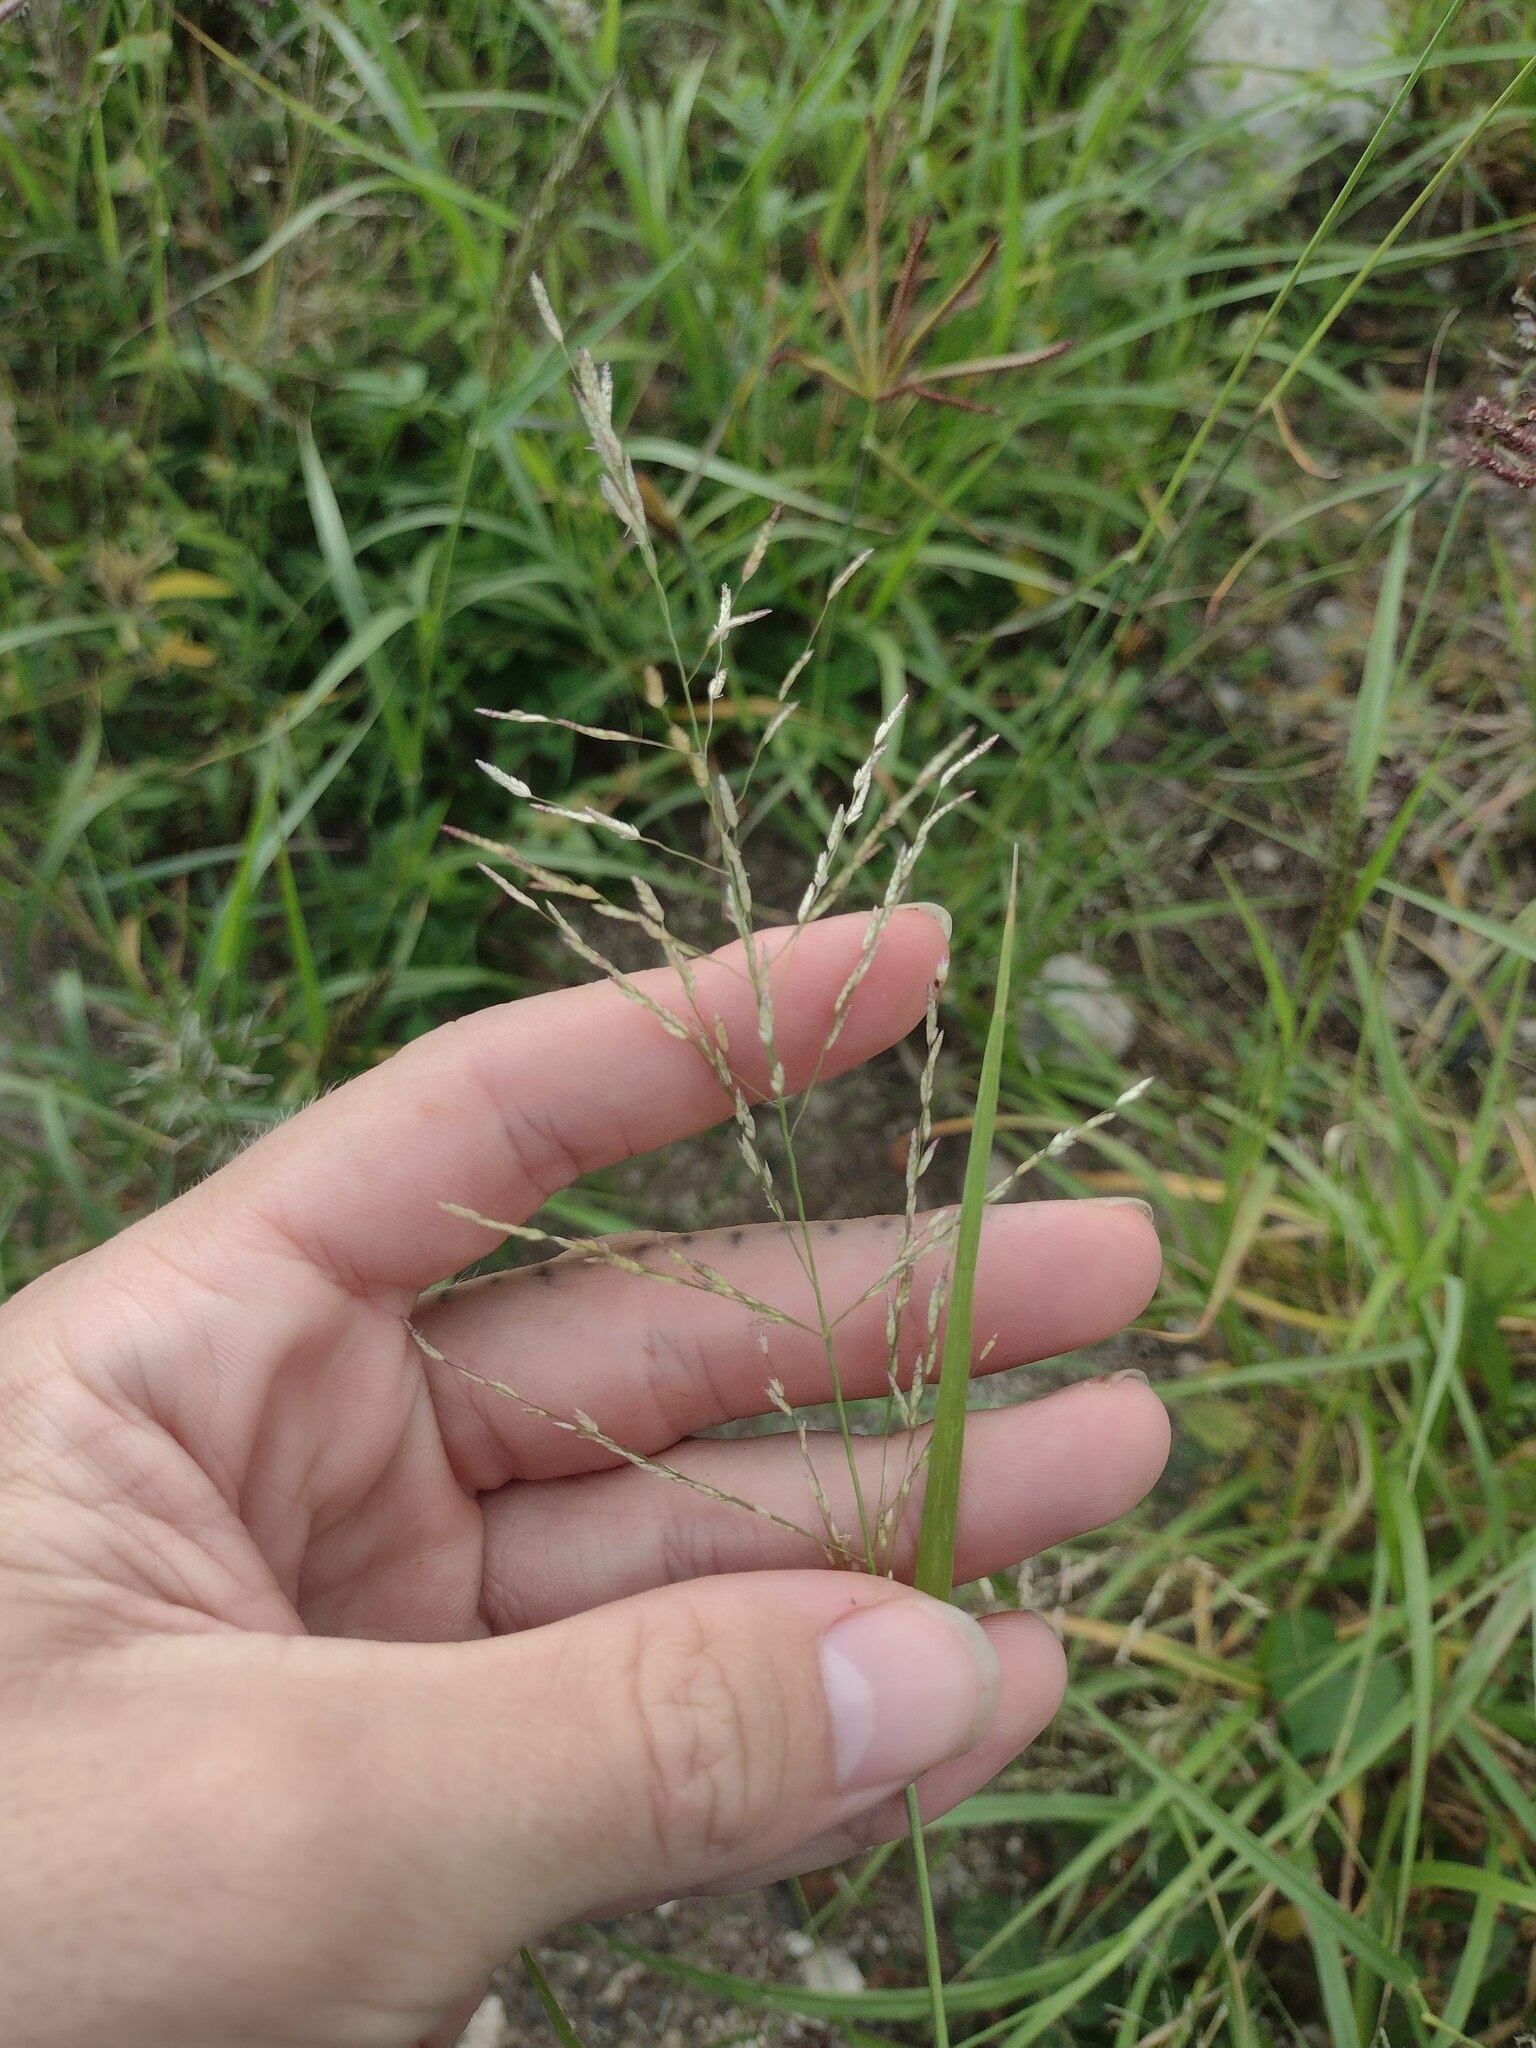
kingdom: Plantae
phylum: Tracheophyta
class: Liliopsida
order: Poales
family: Poaceae
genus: Eragrostis
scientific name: Eragrostis pectinacea
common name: Tufted lovegrass
